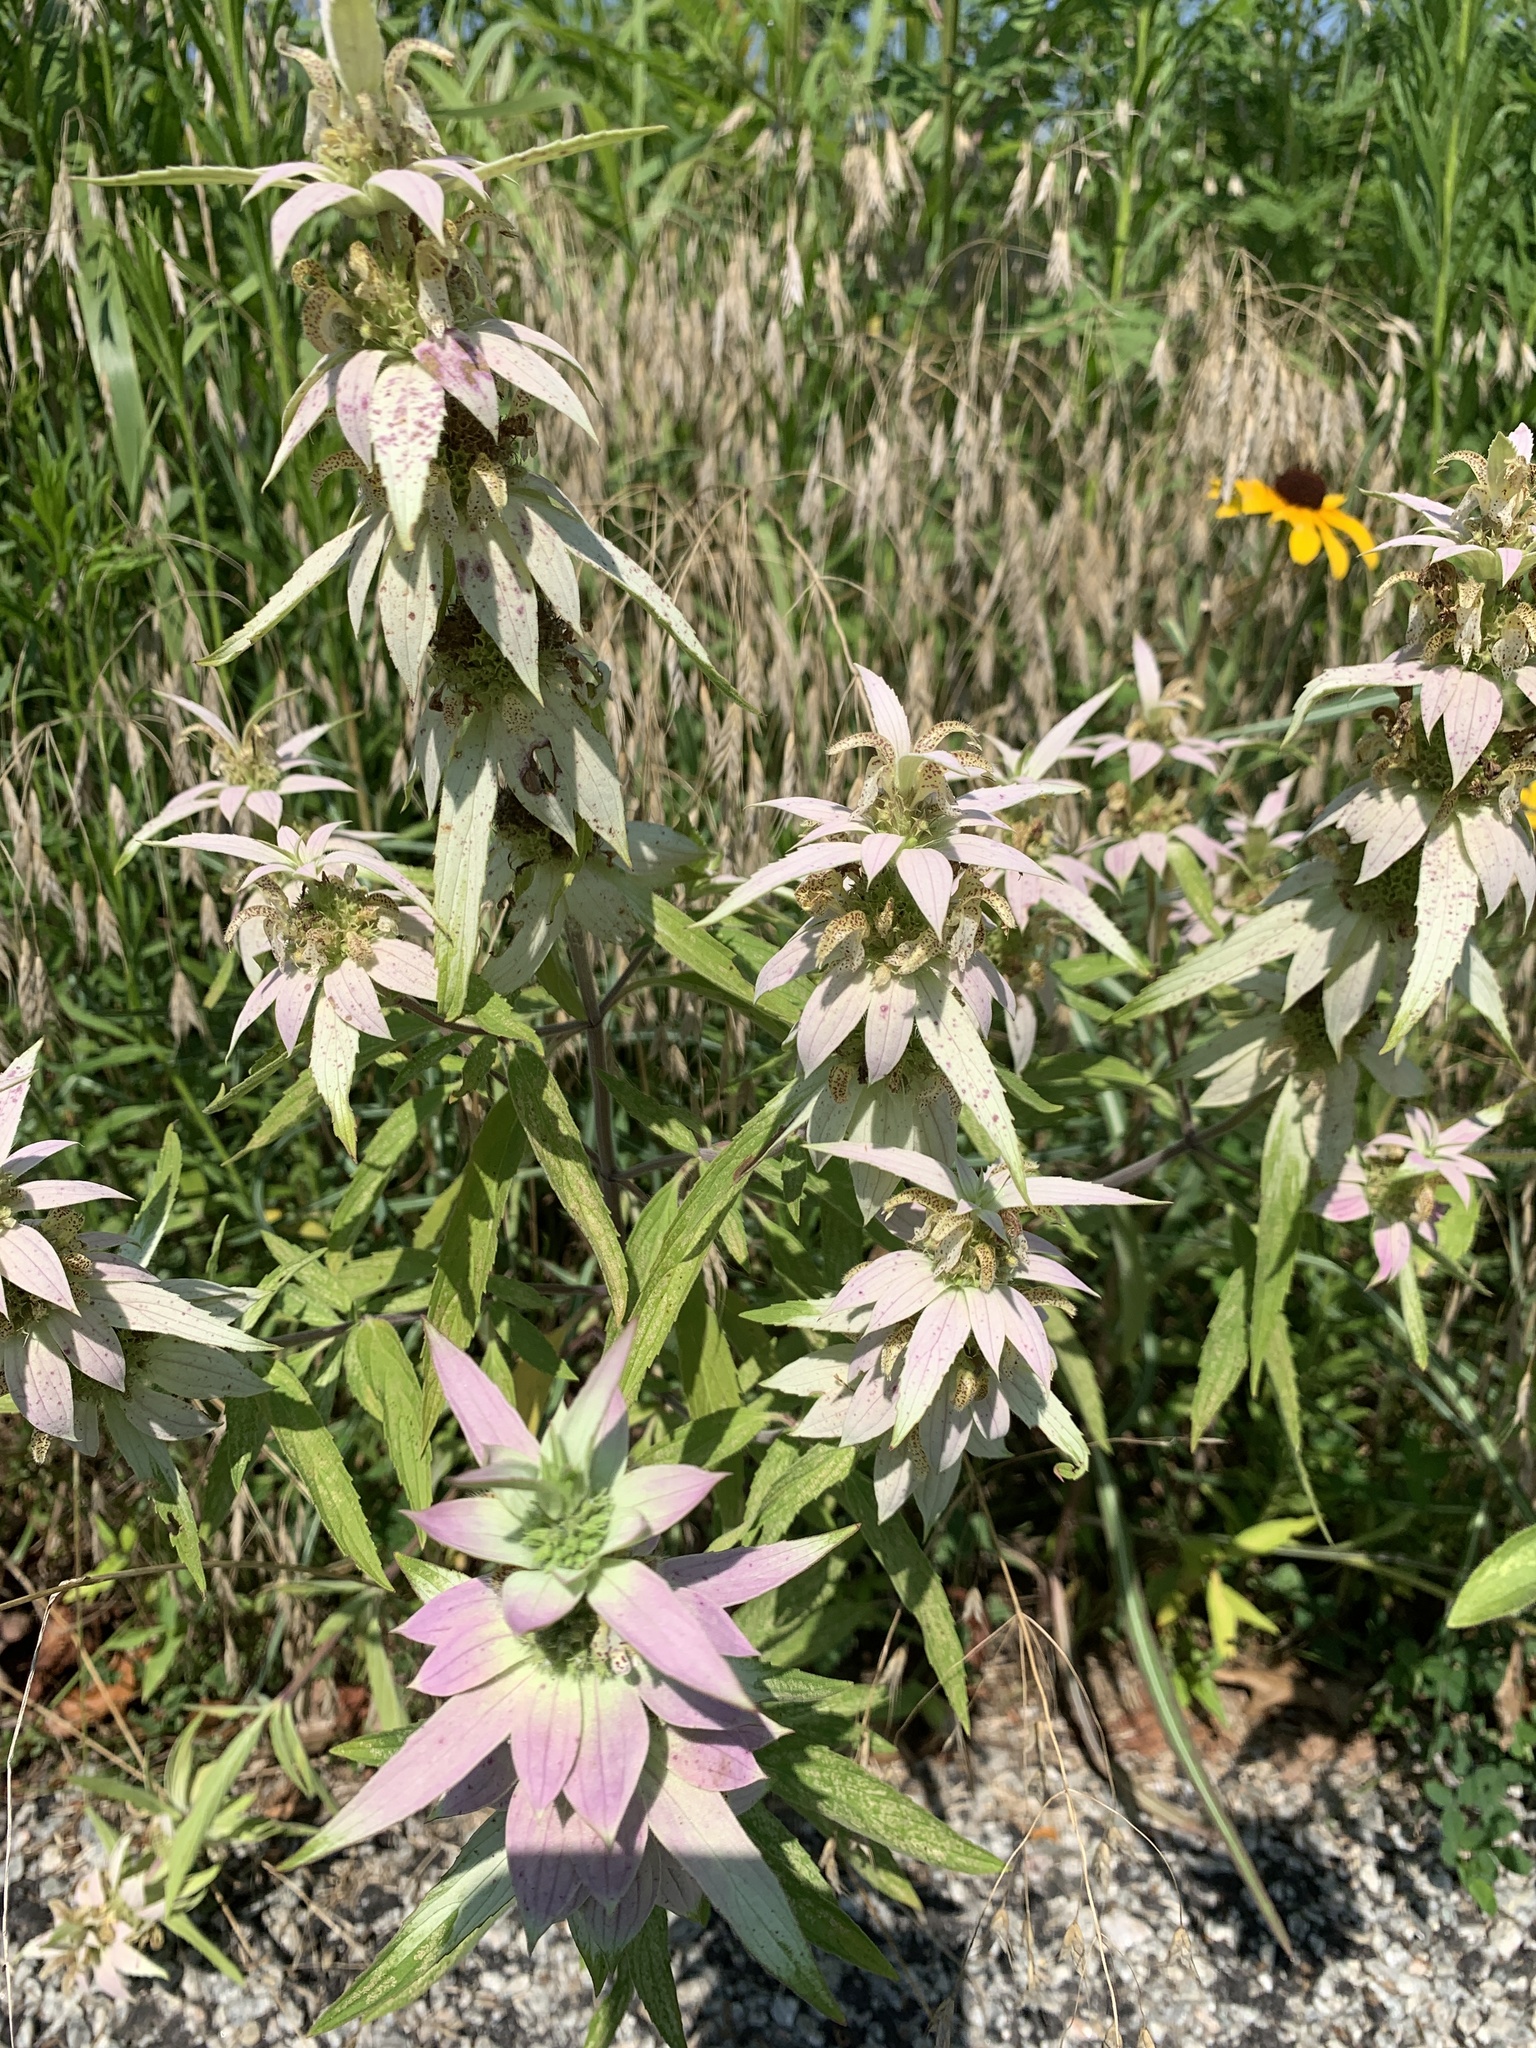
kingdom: Plantae
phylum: Tracheophyta
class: Magnoliopsida
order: Lamiales
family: Lamiaceae
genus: Monarda
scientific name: Monarda punctata
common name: Dotted monarda
